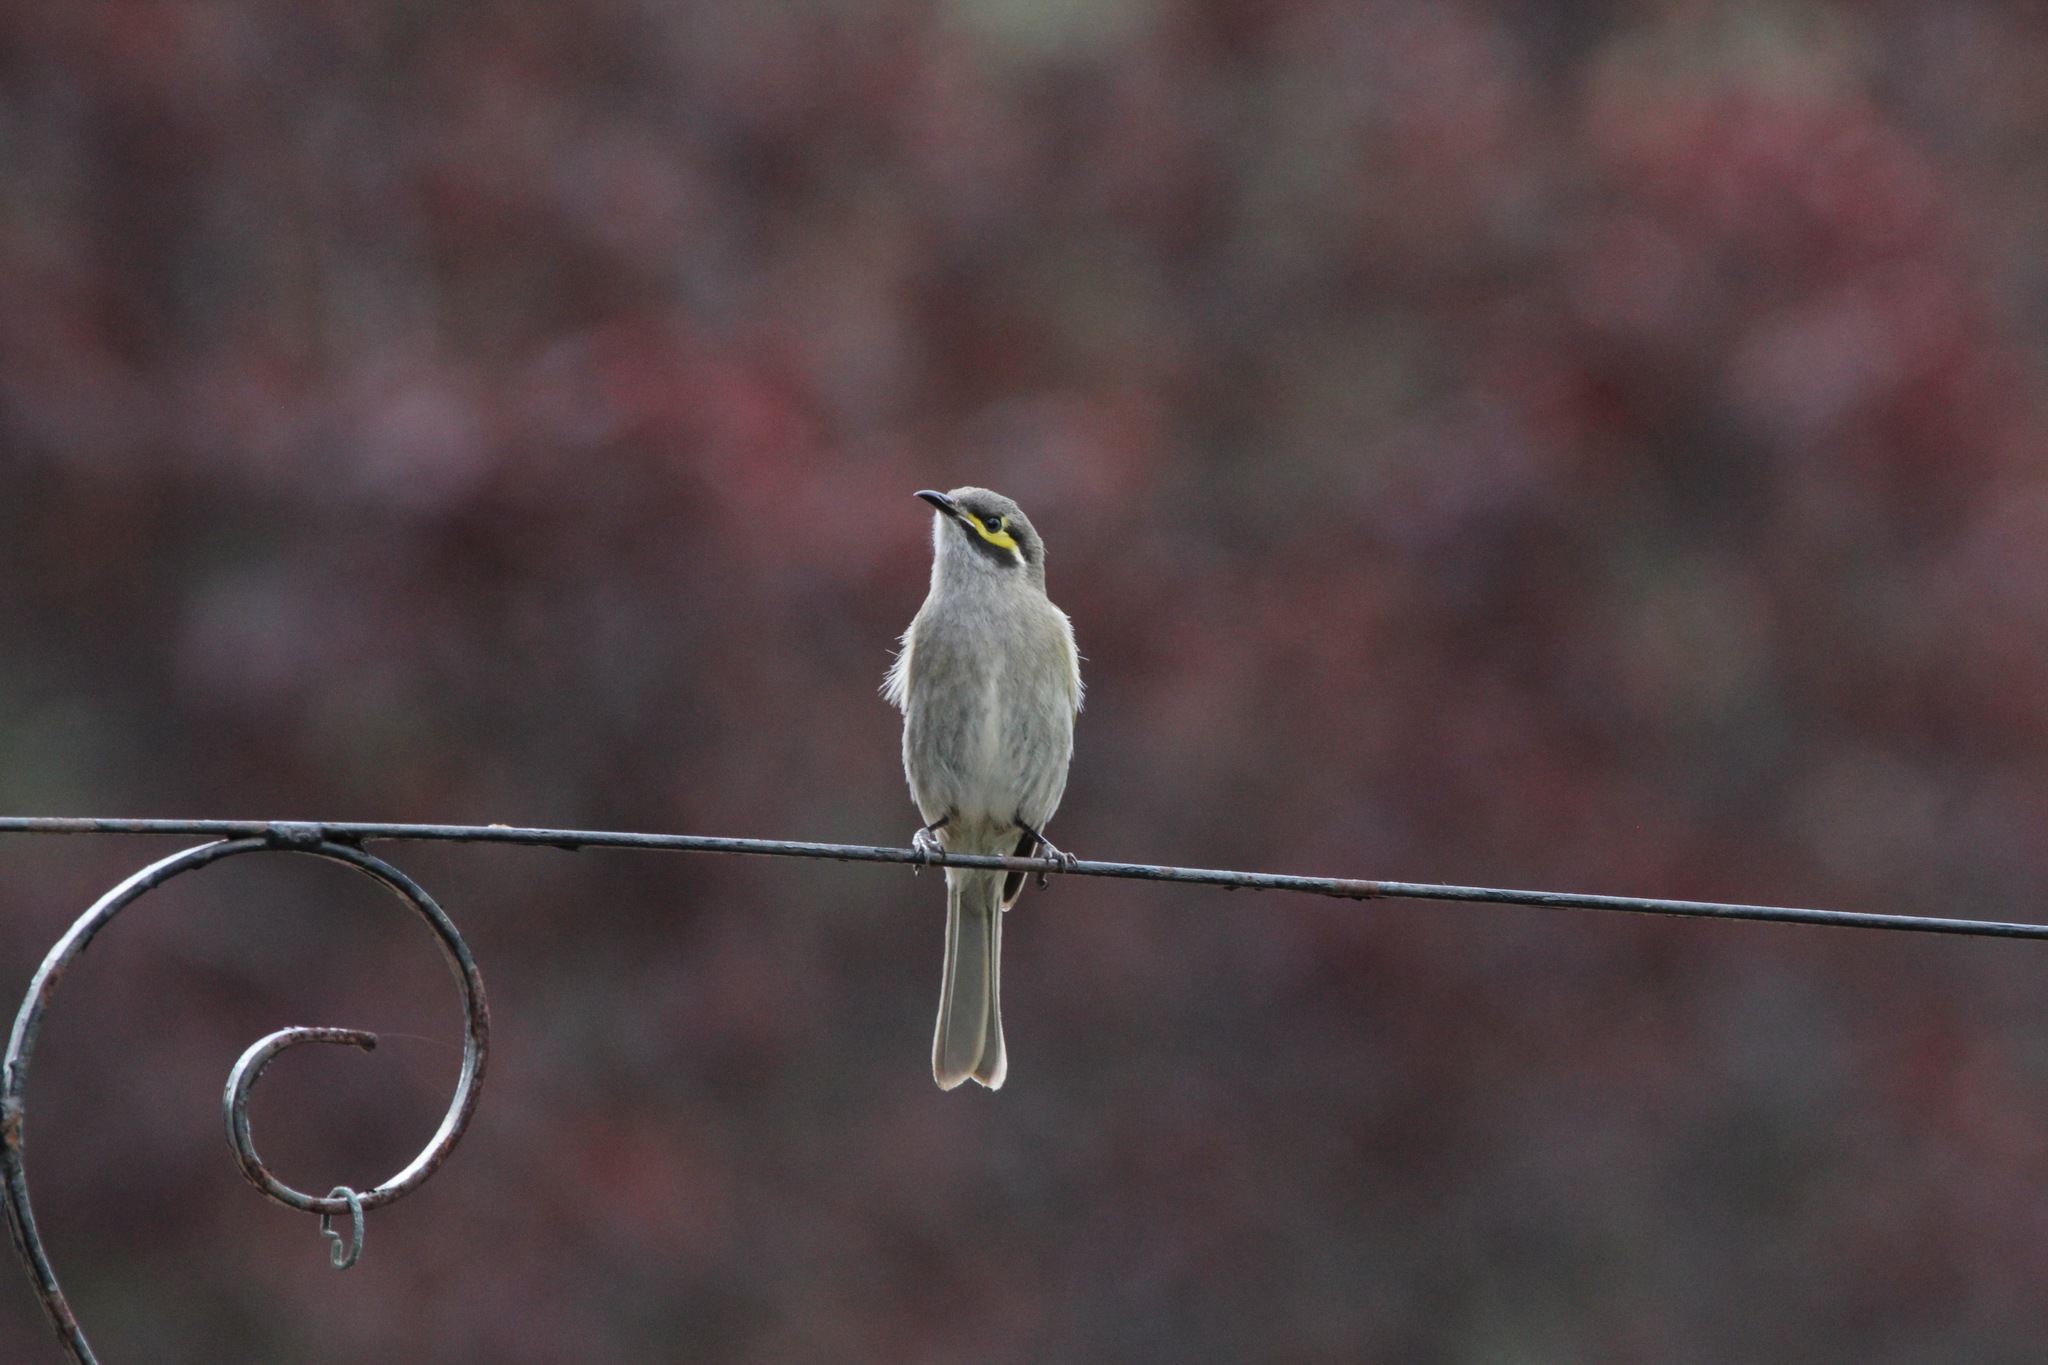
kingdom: Animalia
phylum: Chordata
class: Aves
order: Passeriformes
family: Meliphagidae
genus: Caligavis
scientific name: Caligavis chrysops
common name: Yellow-faced honeyeater
